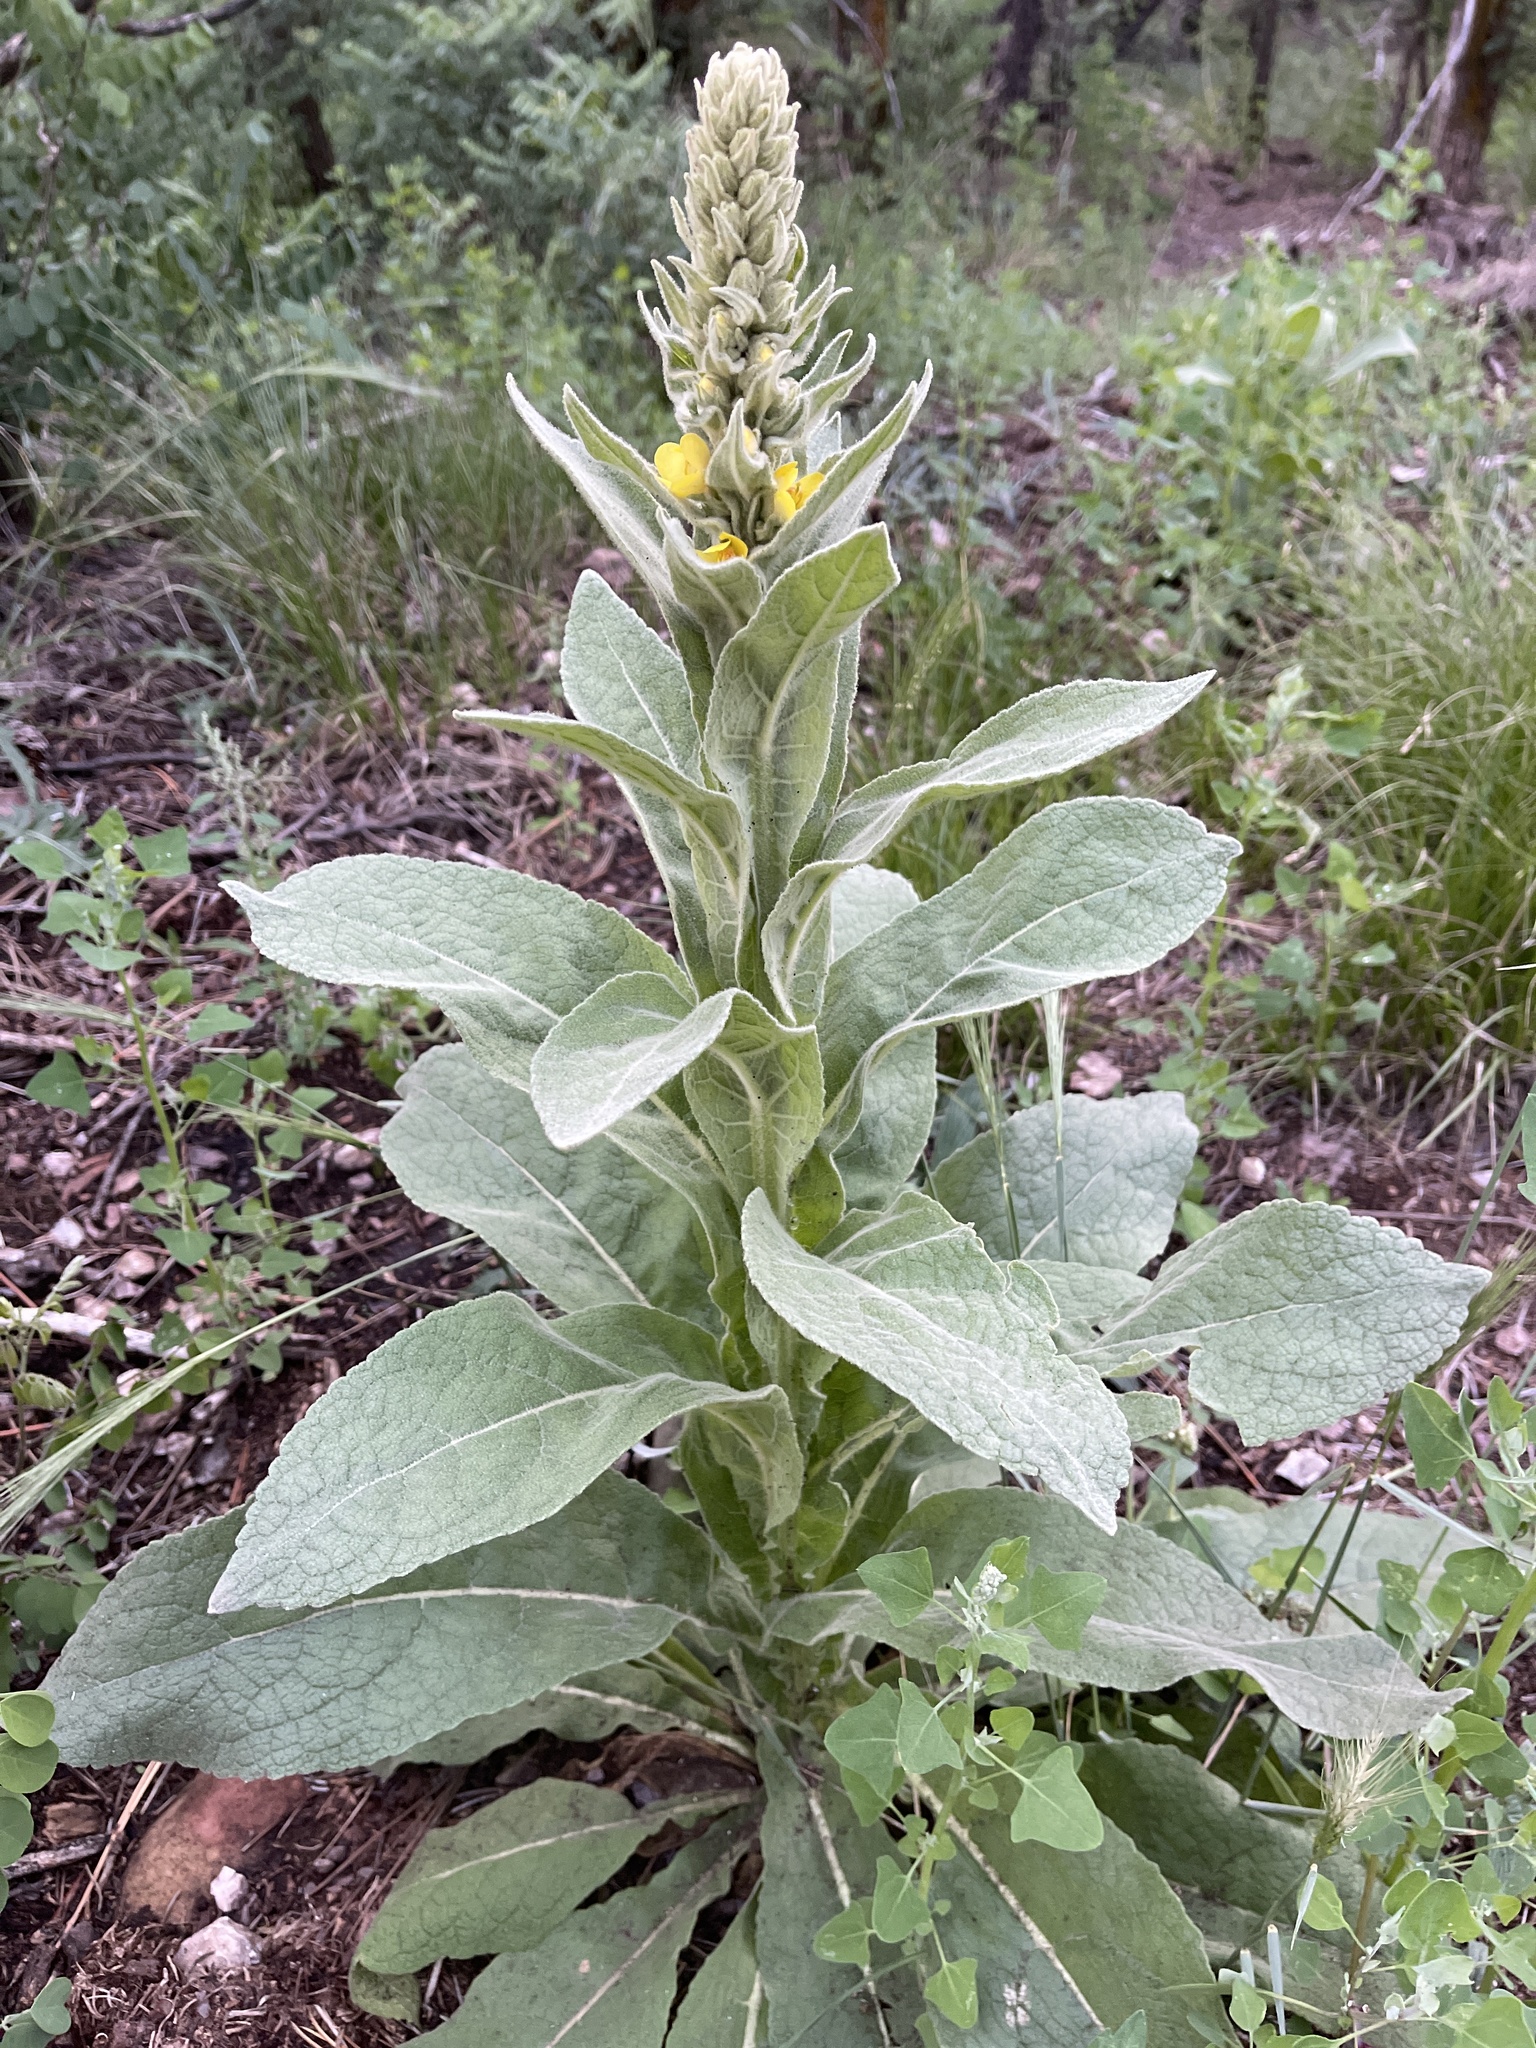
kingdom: Plantae
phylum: Tracheophyta
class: Magnoliopsida
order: Lamiales
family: Scrophulariaceae
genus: Verbascum
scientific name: Verbascum thapsus
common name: Common mullein
